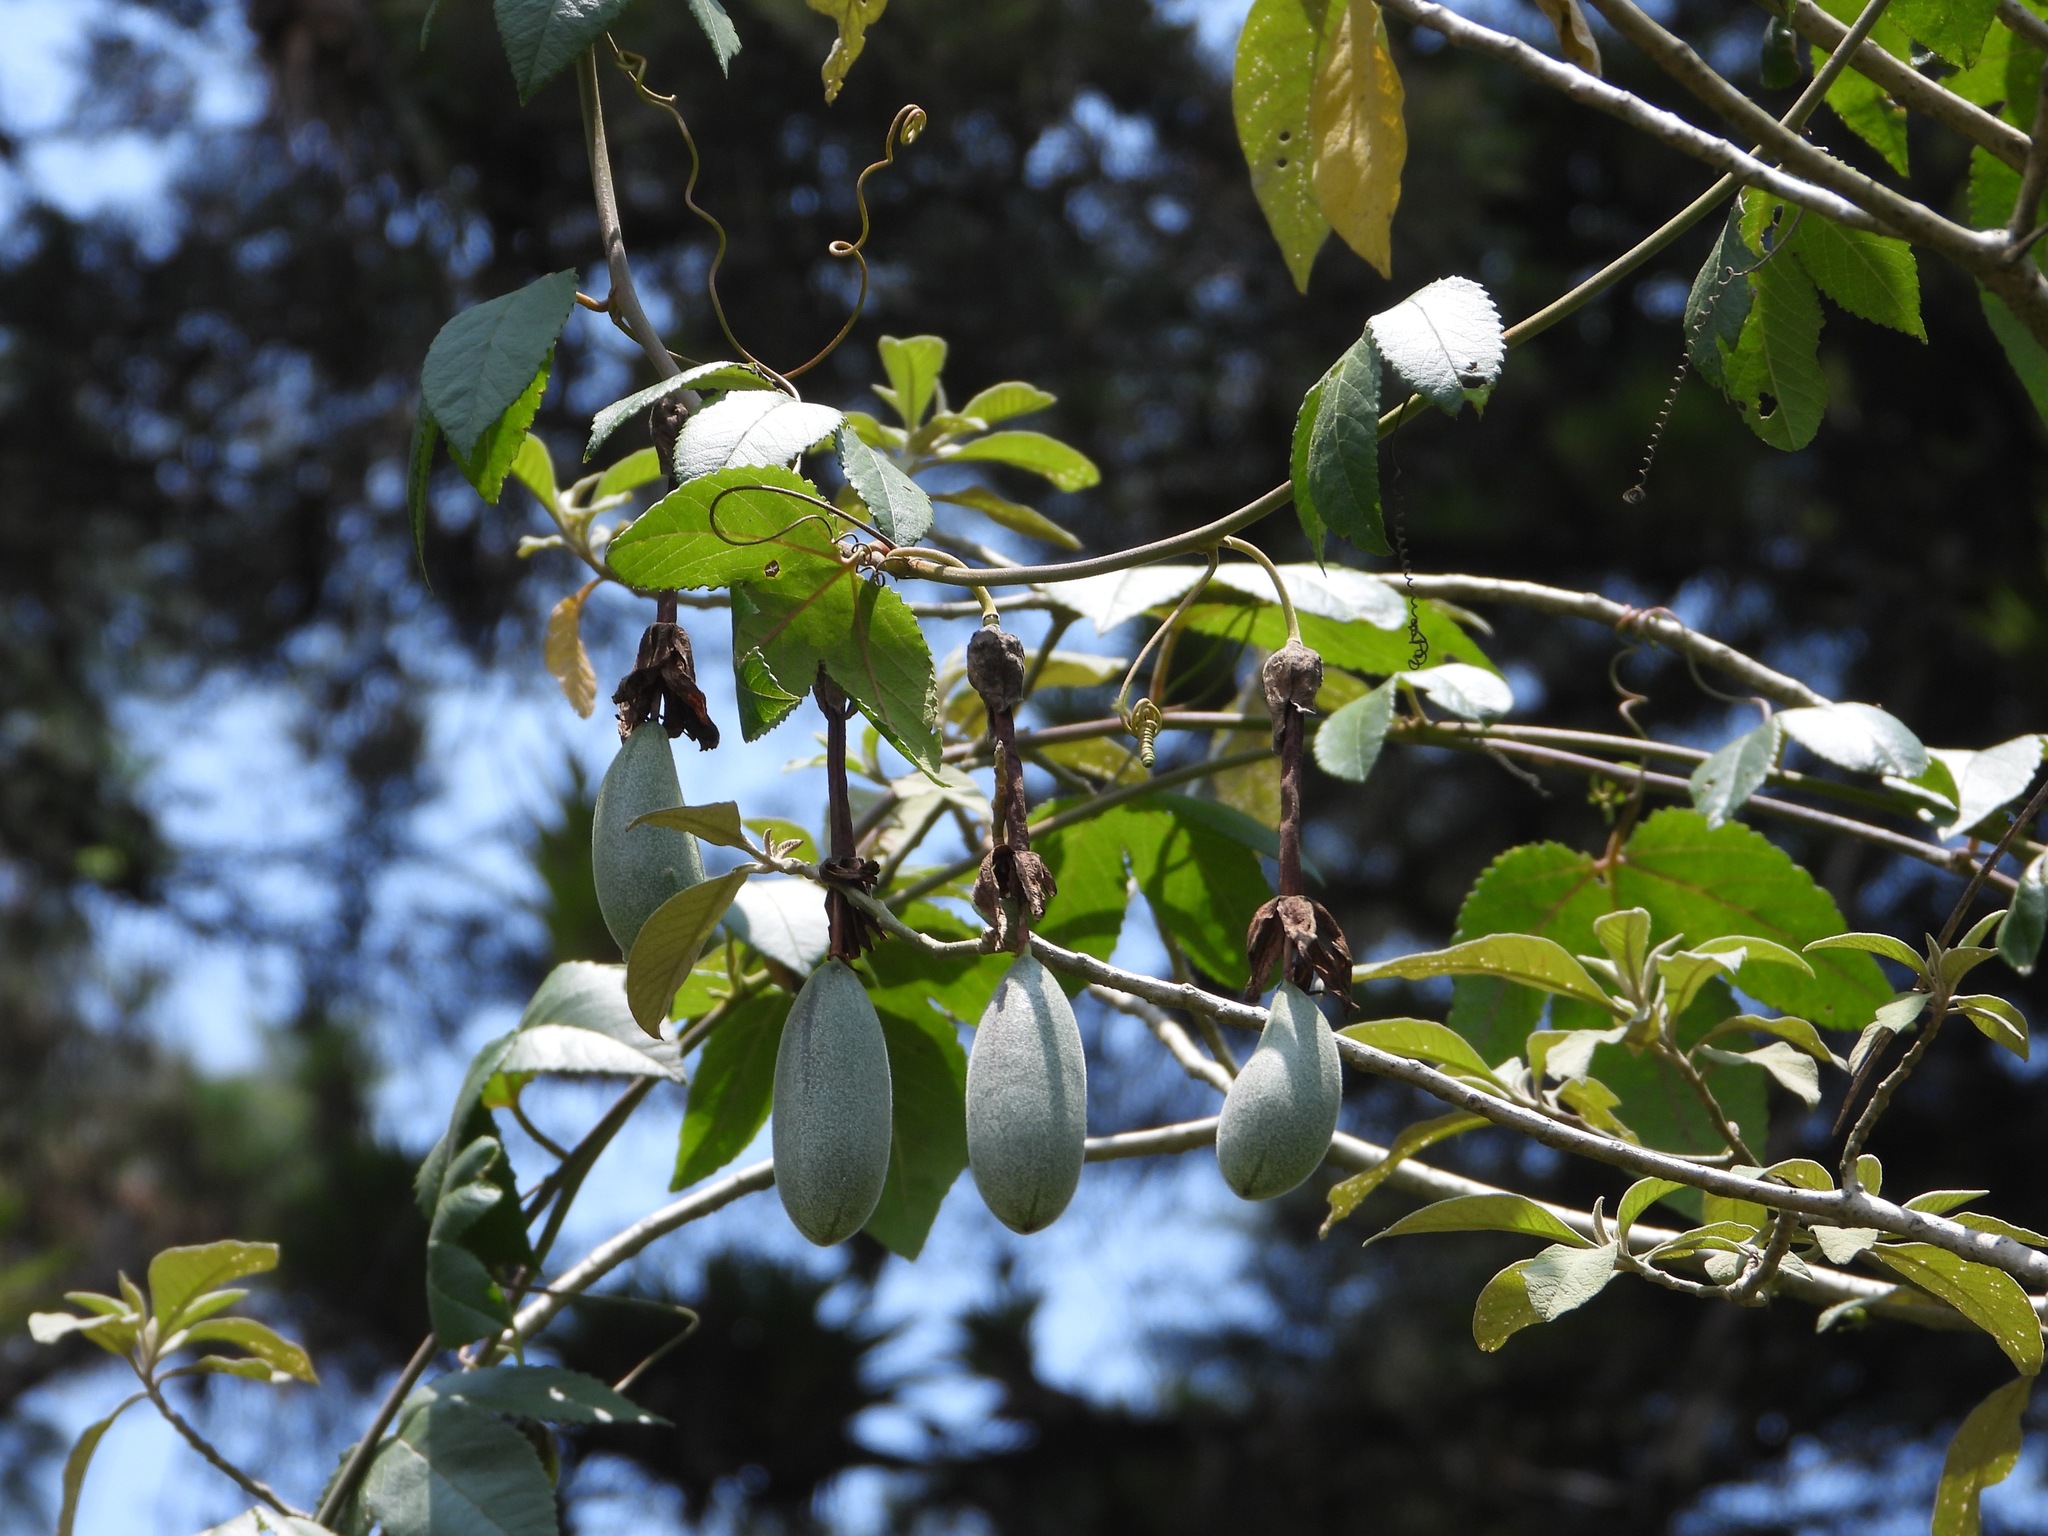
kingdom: Plantae
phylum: Tracheophyta
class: Magnoliopsida
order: Malpighiales
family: Passifloraceae
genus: Passiflora
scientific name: Passiflora tarminiana
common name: Banana poka
